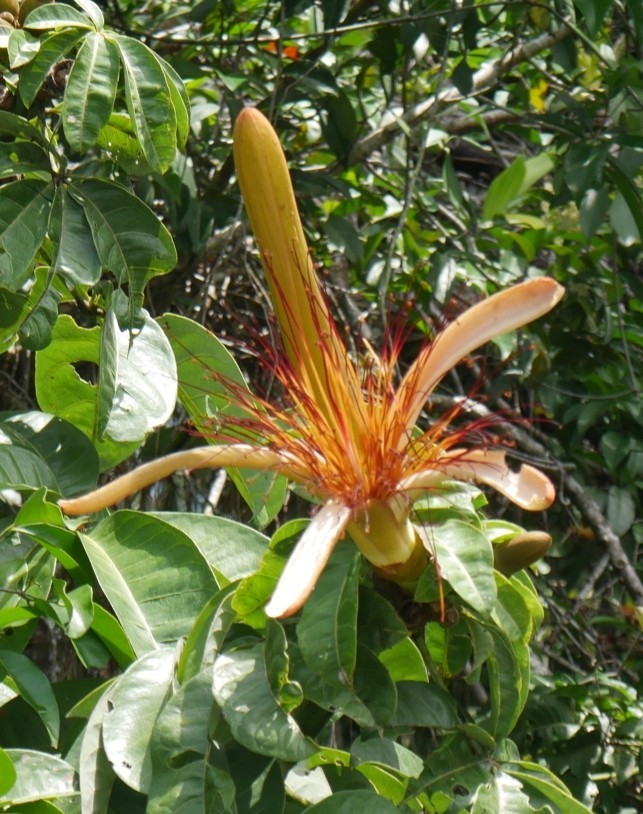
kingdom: Plantae
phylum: Tracheophyta
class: Magnoliopsida
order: Malvales
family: Malvaceae
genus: Pachira
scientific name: Pachira aquatica
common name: Provision-tree
